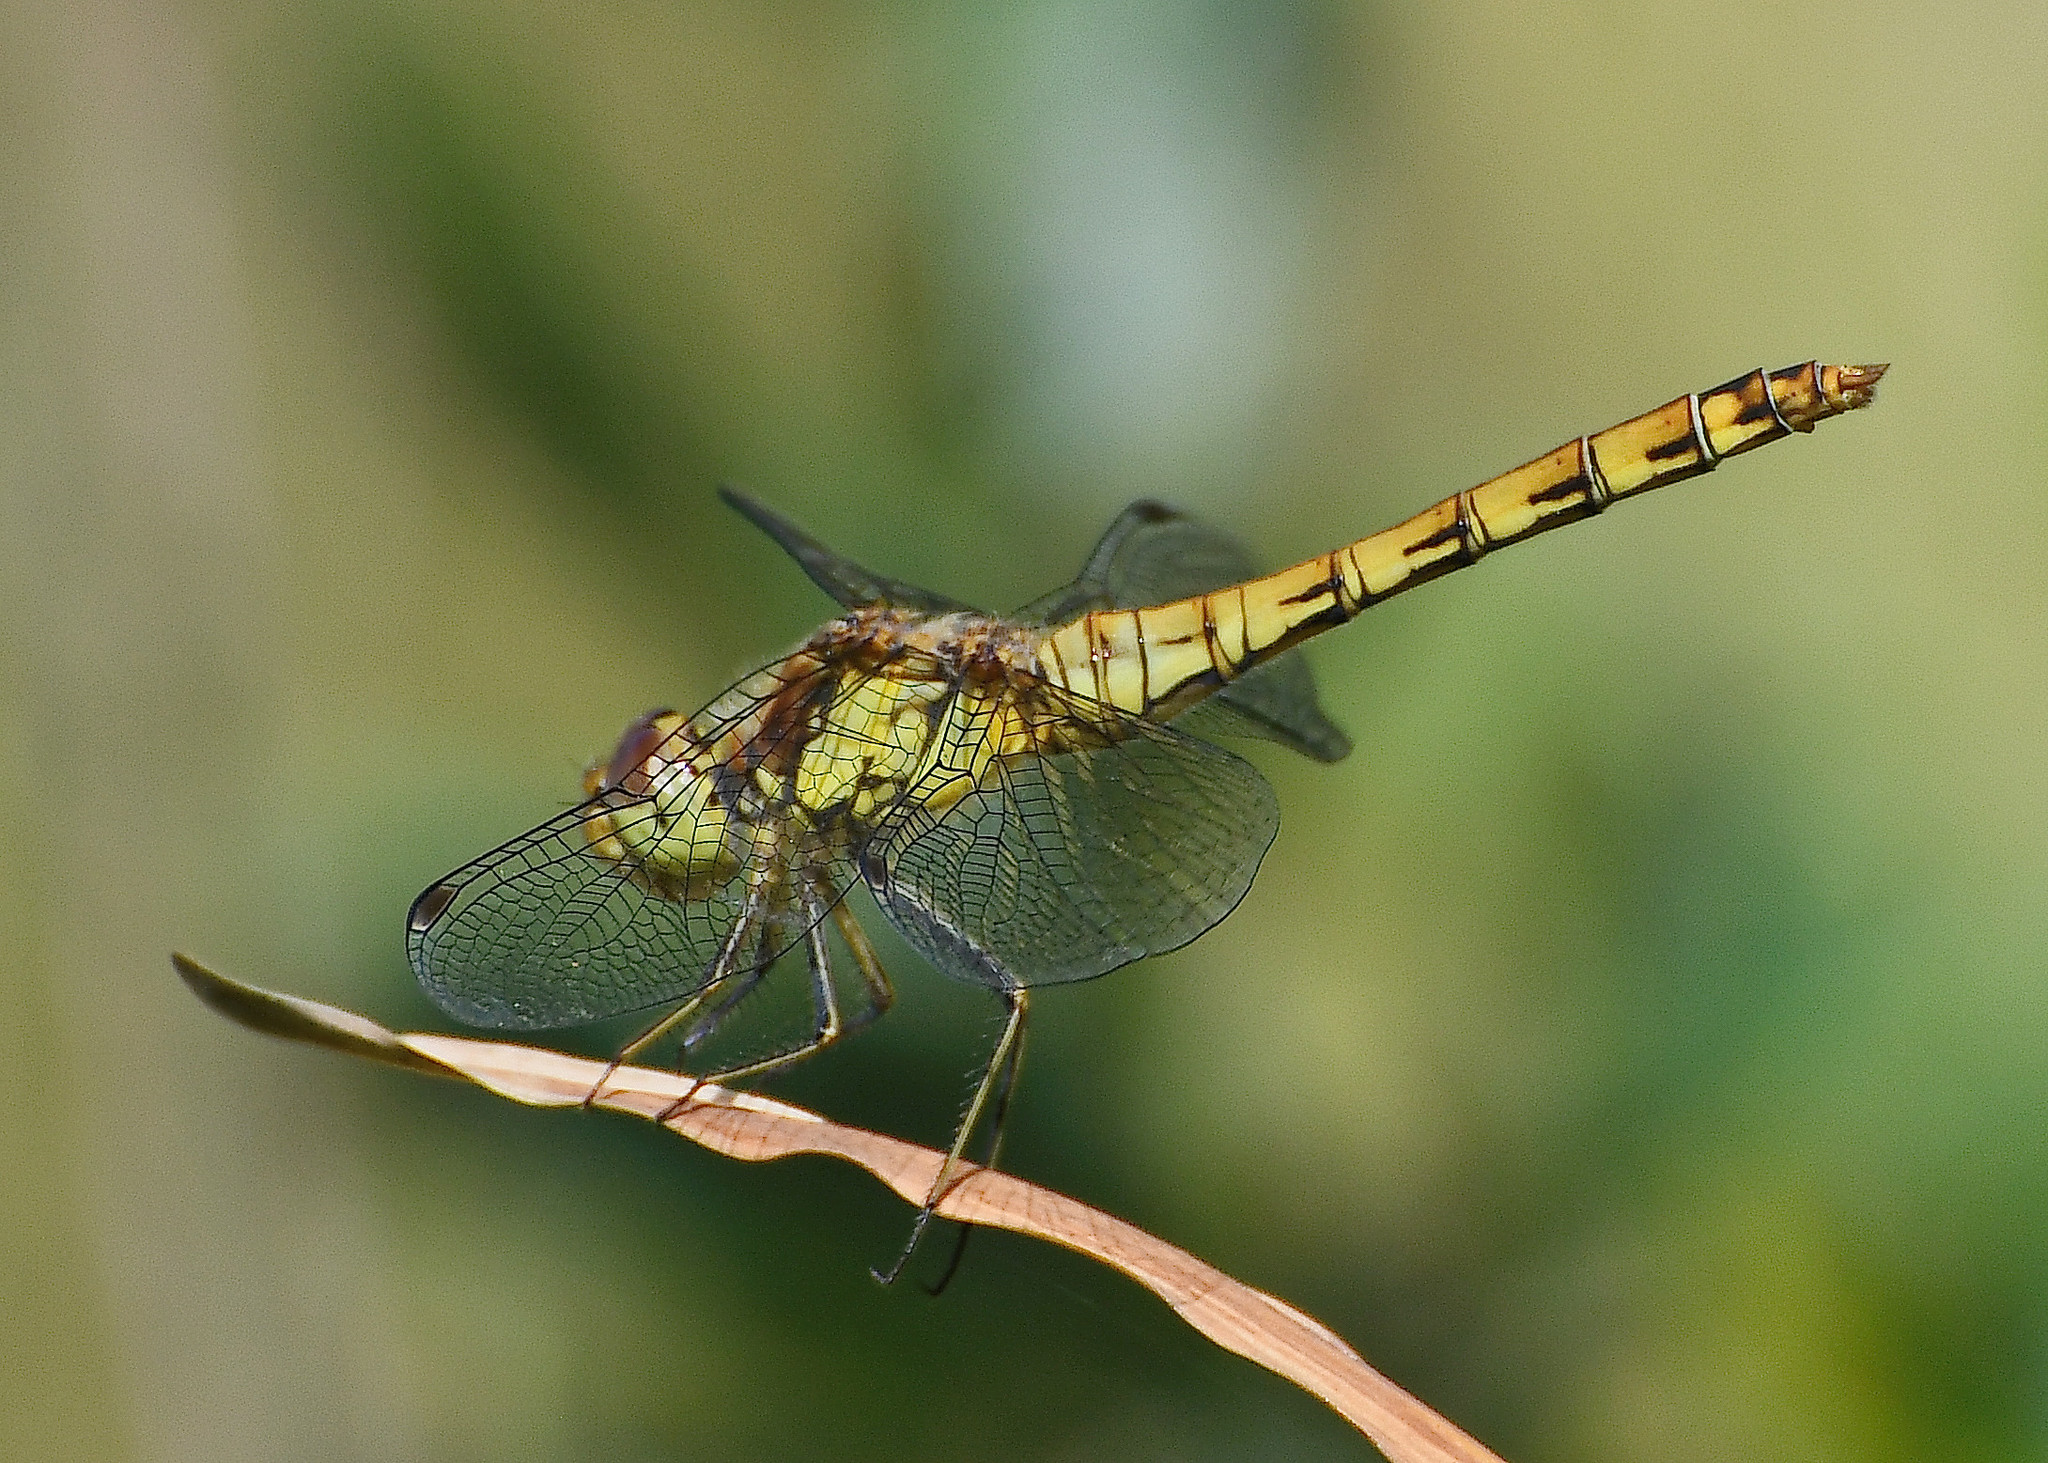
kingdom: Animalia
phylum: Arthropoda
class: Insecta
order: Odonata
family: Libellulidae
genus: Sympetrum
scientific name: Sympetrum striolatum
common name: Common darter
